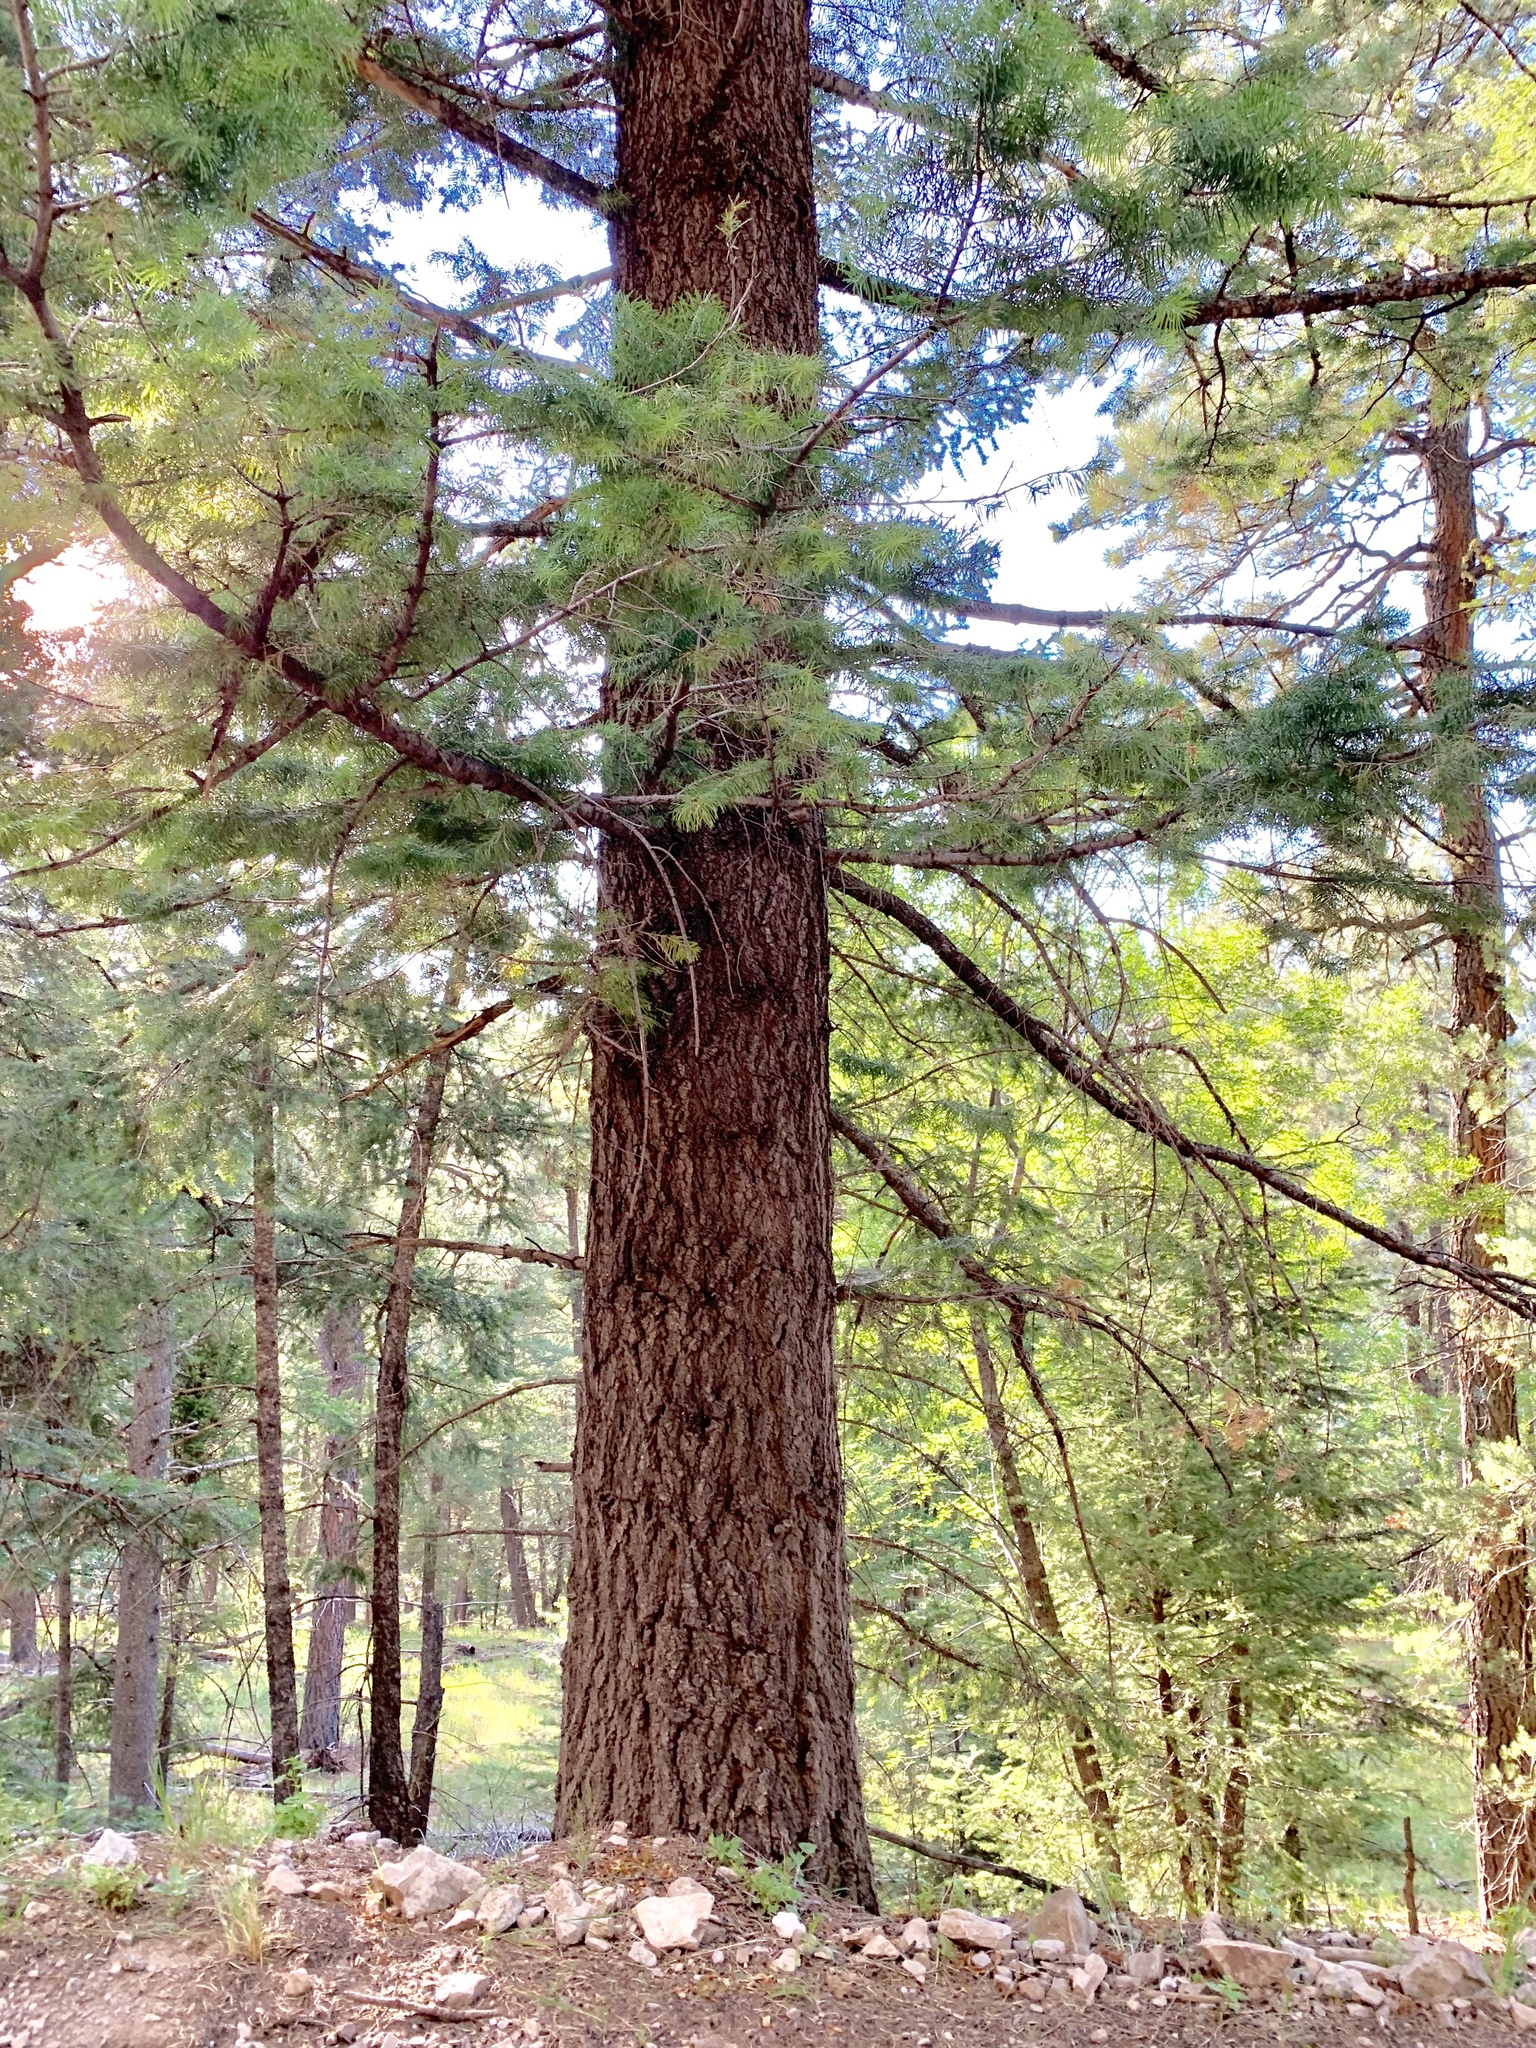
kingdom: Plantae
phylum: Tracheophyta
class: Pinopsida
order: Pinales
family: Pinaceae
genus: Abies
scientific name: Abies concolor
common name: Colorado fir
